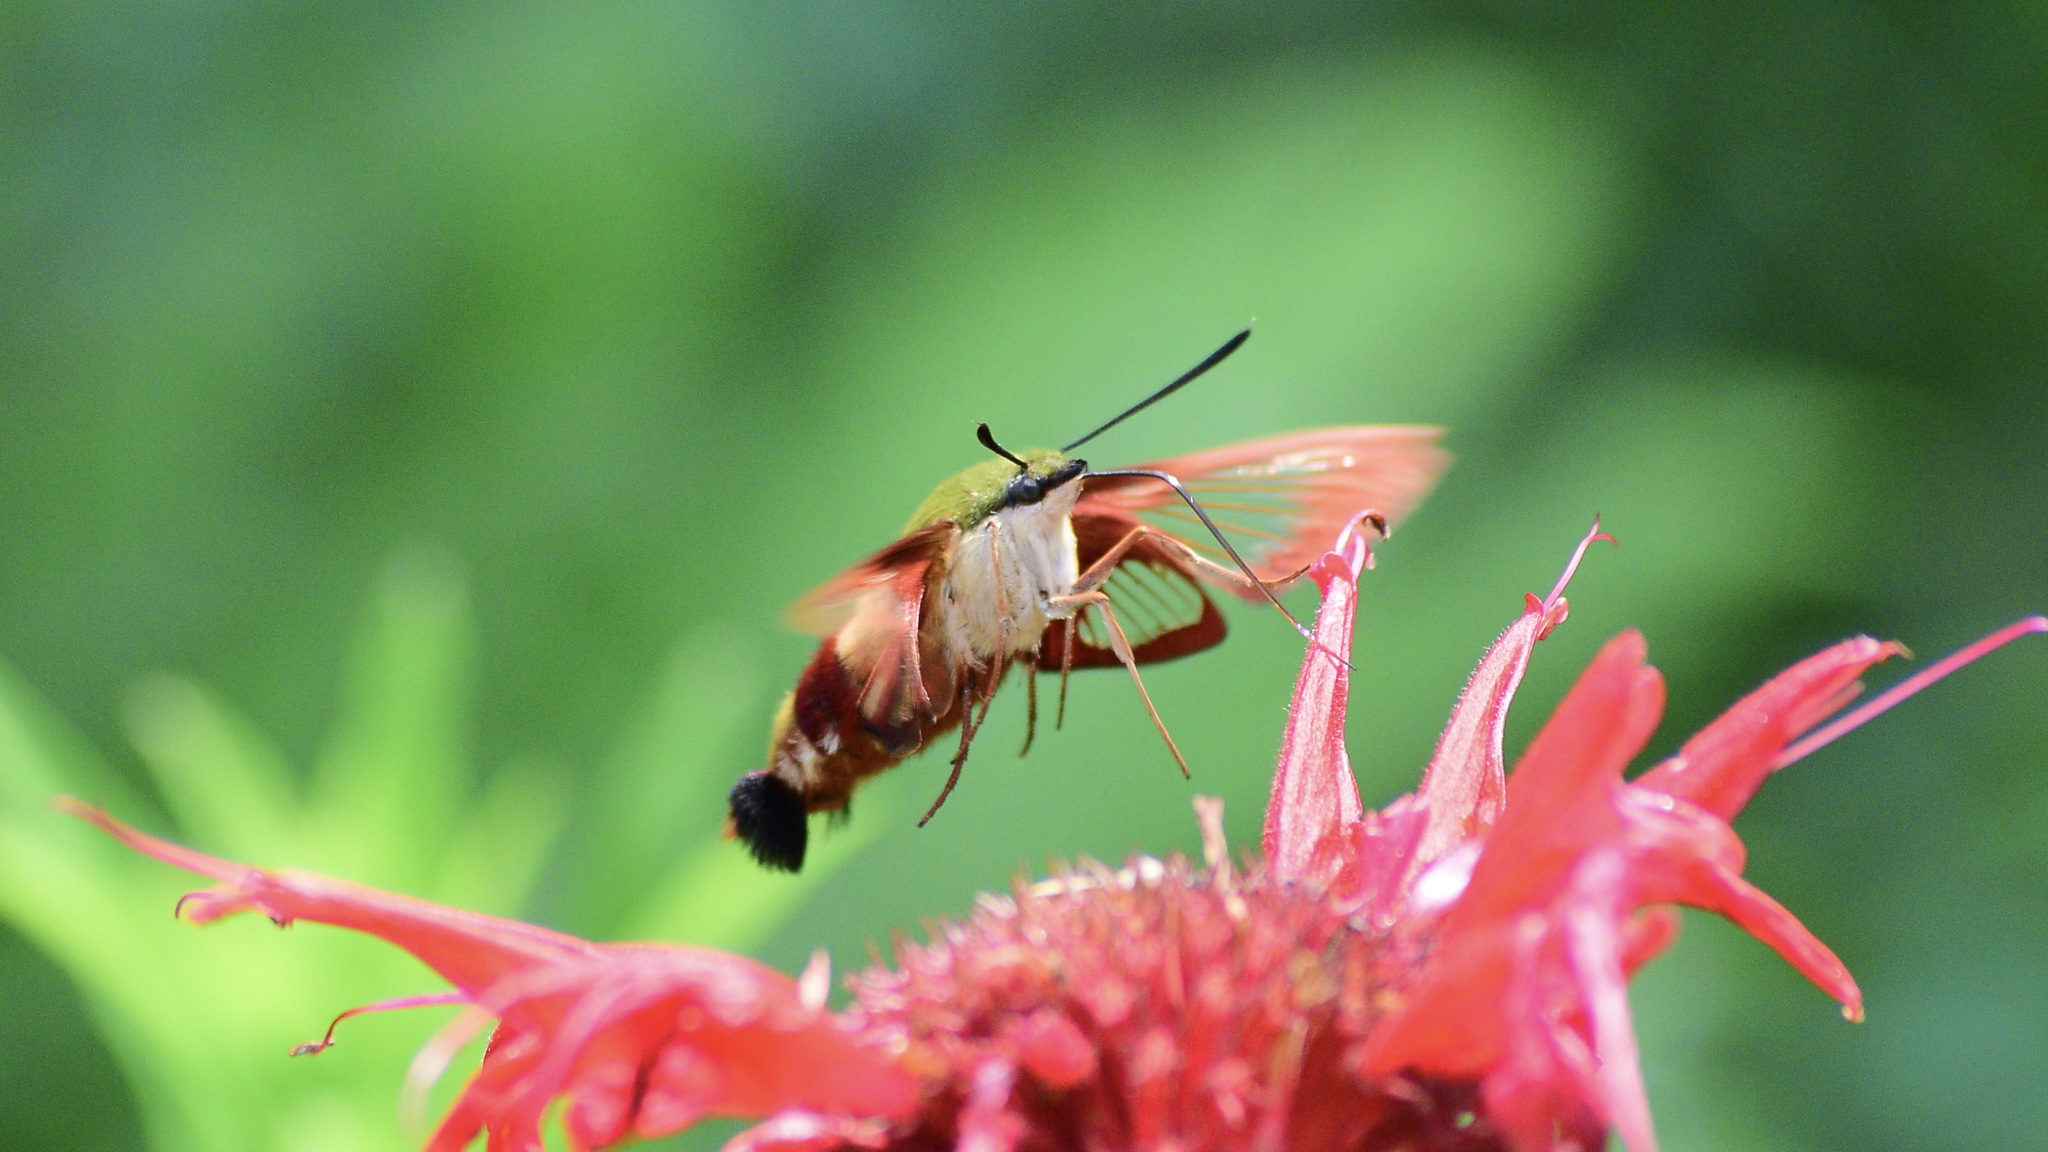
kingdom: Animalia
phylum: Arthropoda
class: Insecta
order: Lepidoptera
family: Sphingidae
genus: Hemaris
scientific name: Hemaris thysbe
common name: Common clear-wing
